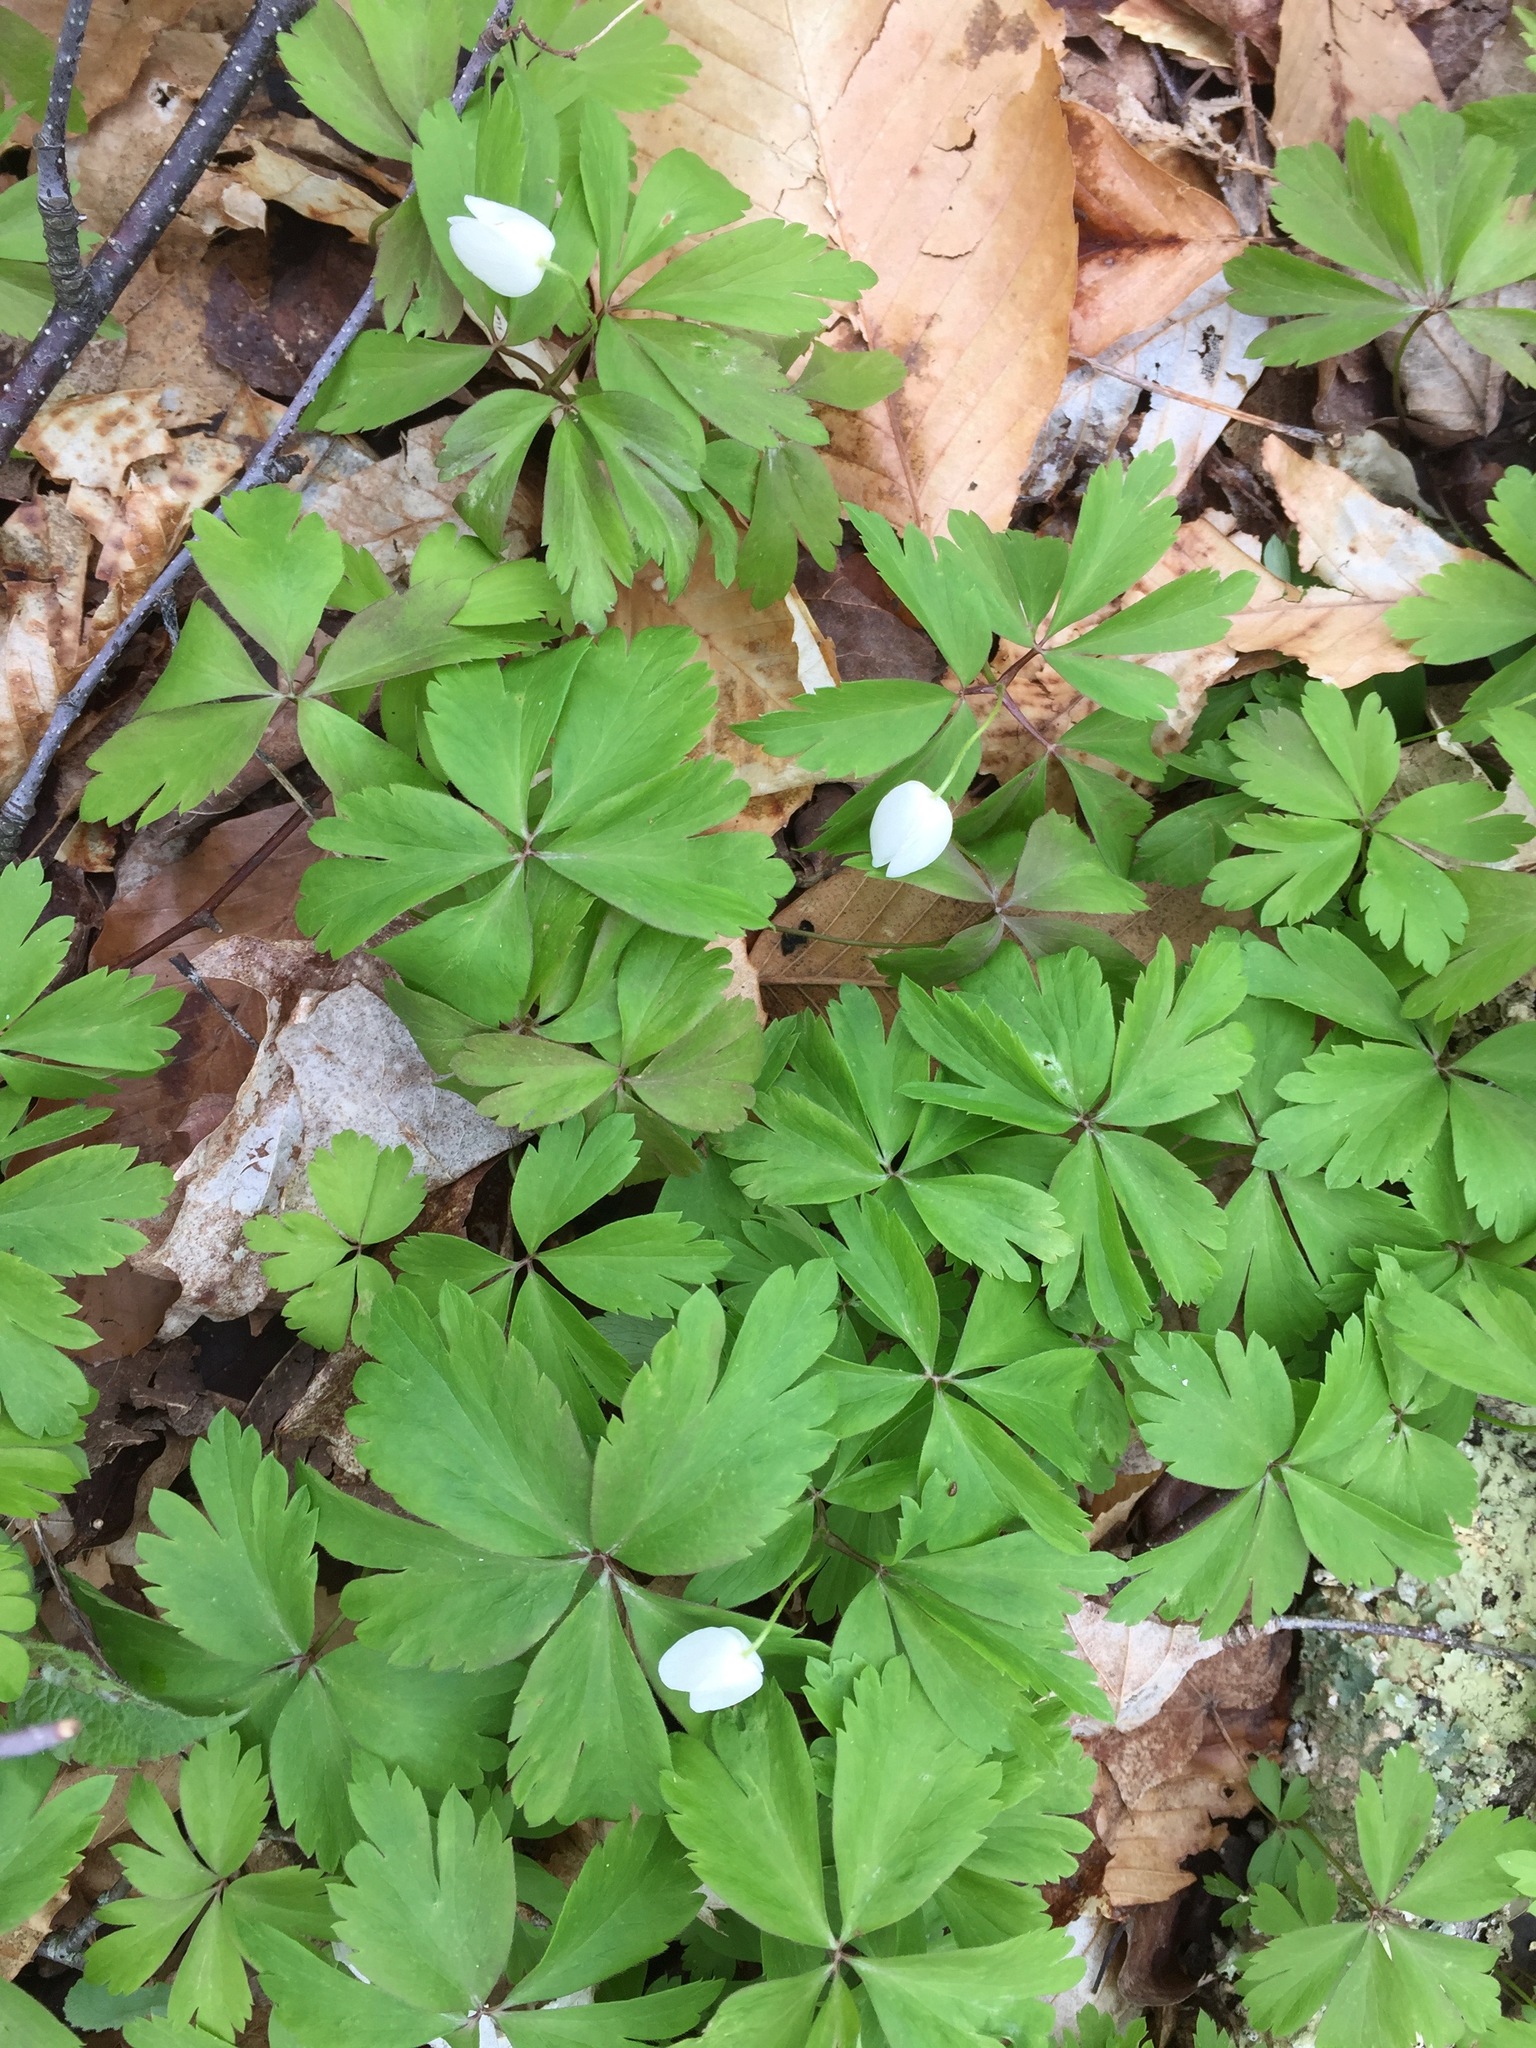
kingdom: Plantae
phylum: Tracheophyta
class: Magnoliopsida
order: Ranunculales
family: Ranunculaceae
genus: Anemone
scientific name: Anemone quinquefolia
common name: Wood anemone
